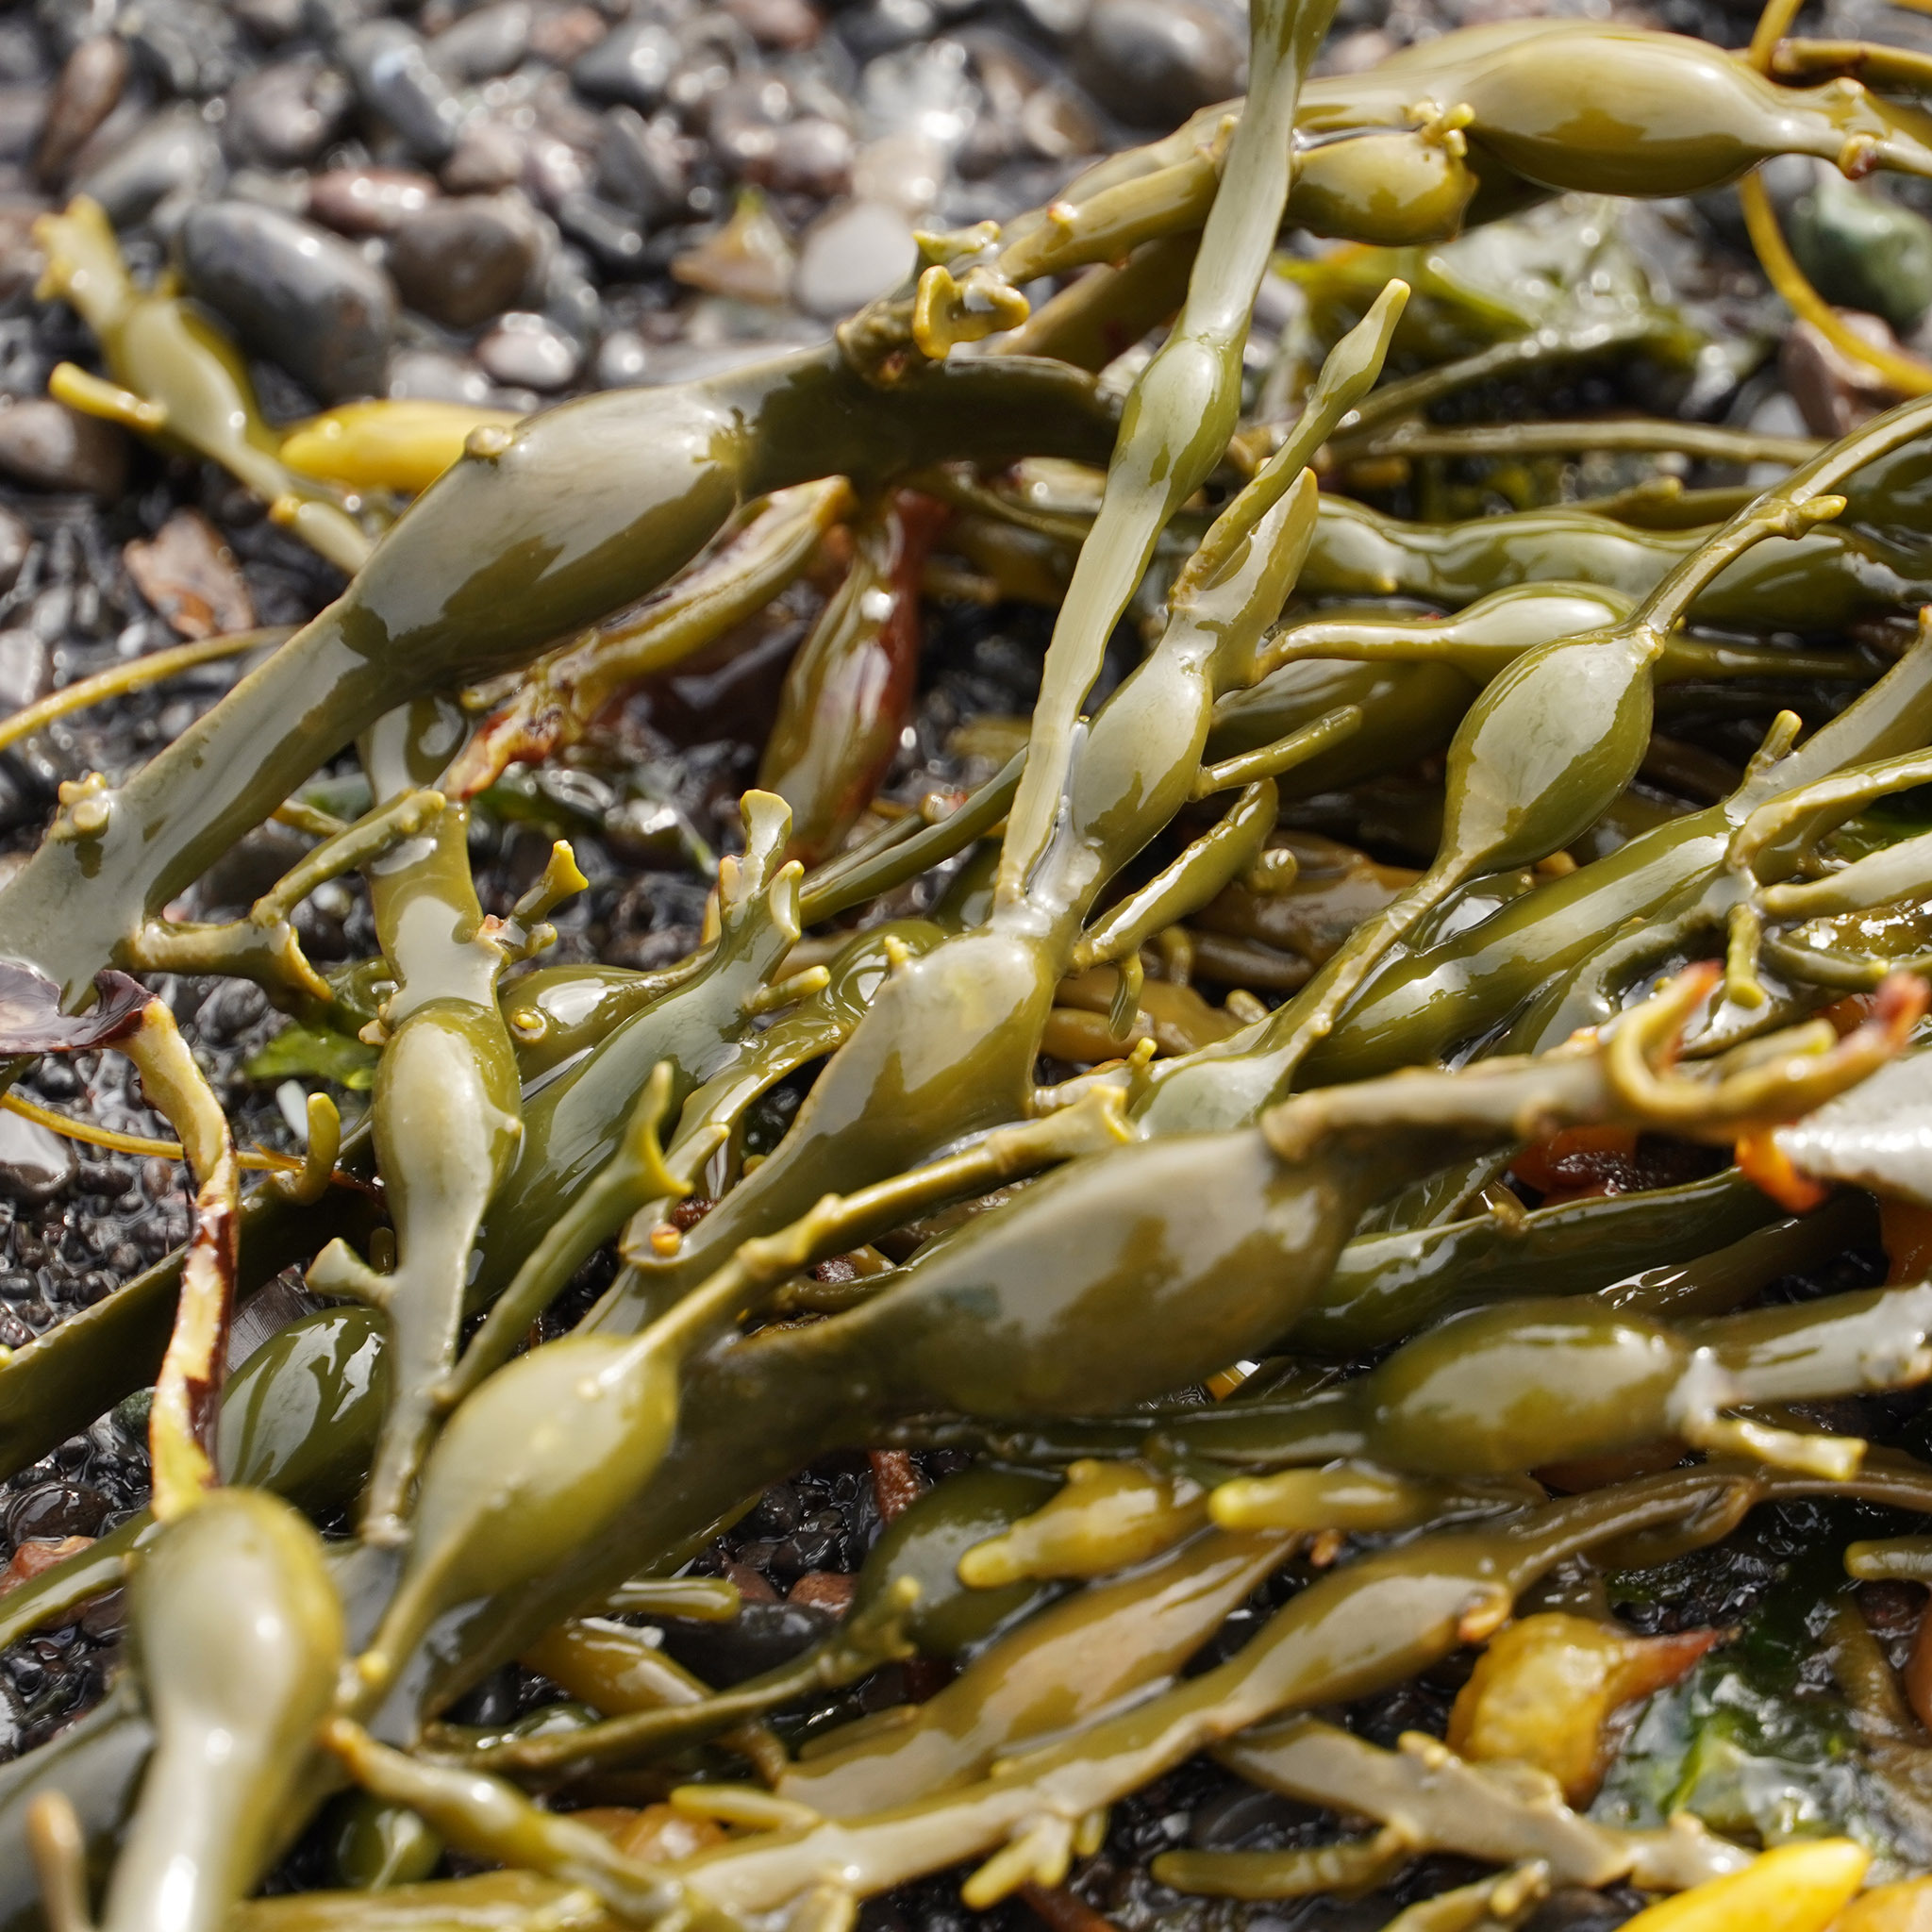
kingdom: Chromista
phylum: Ochrophyta
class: Phaeophyceae
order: Fucales
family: Fucaceae
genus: Ascophyllum
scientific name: Ascophyllum nodosum
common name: Knotted wrack
